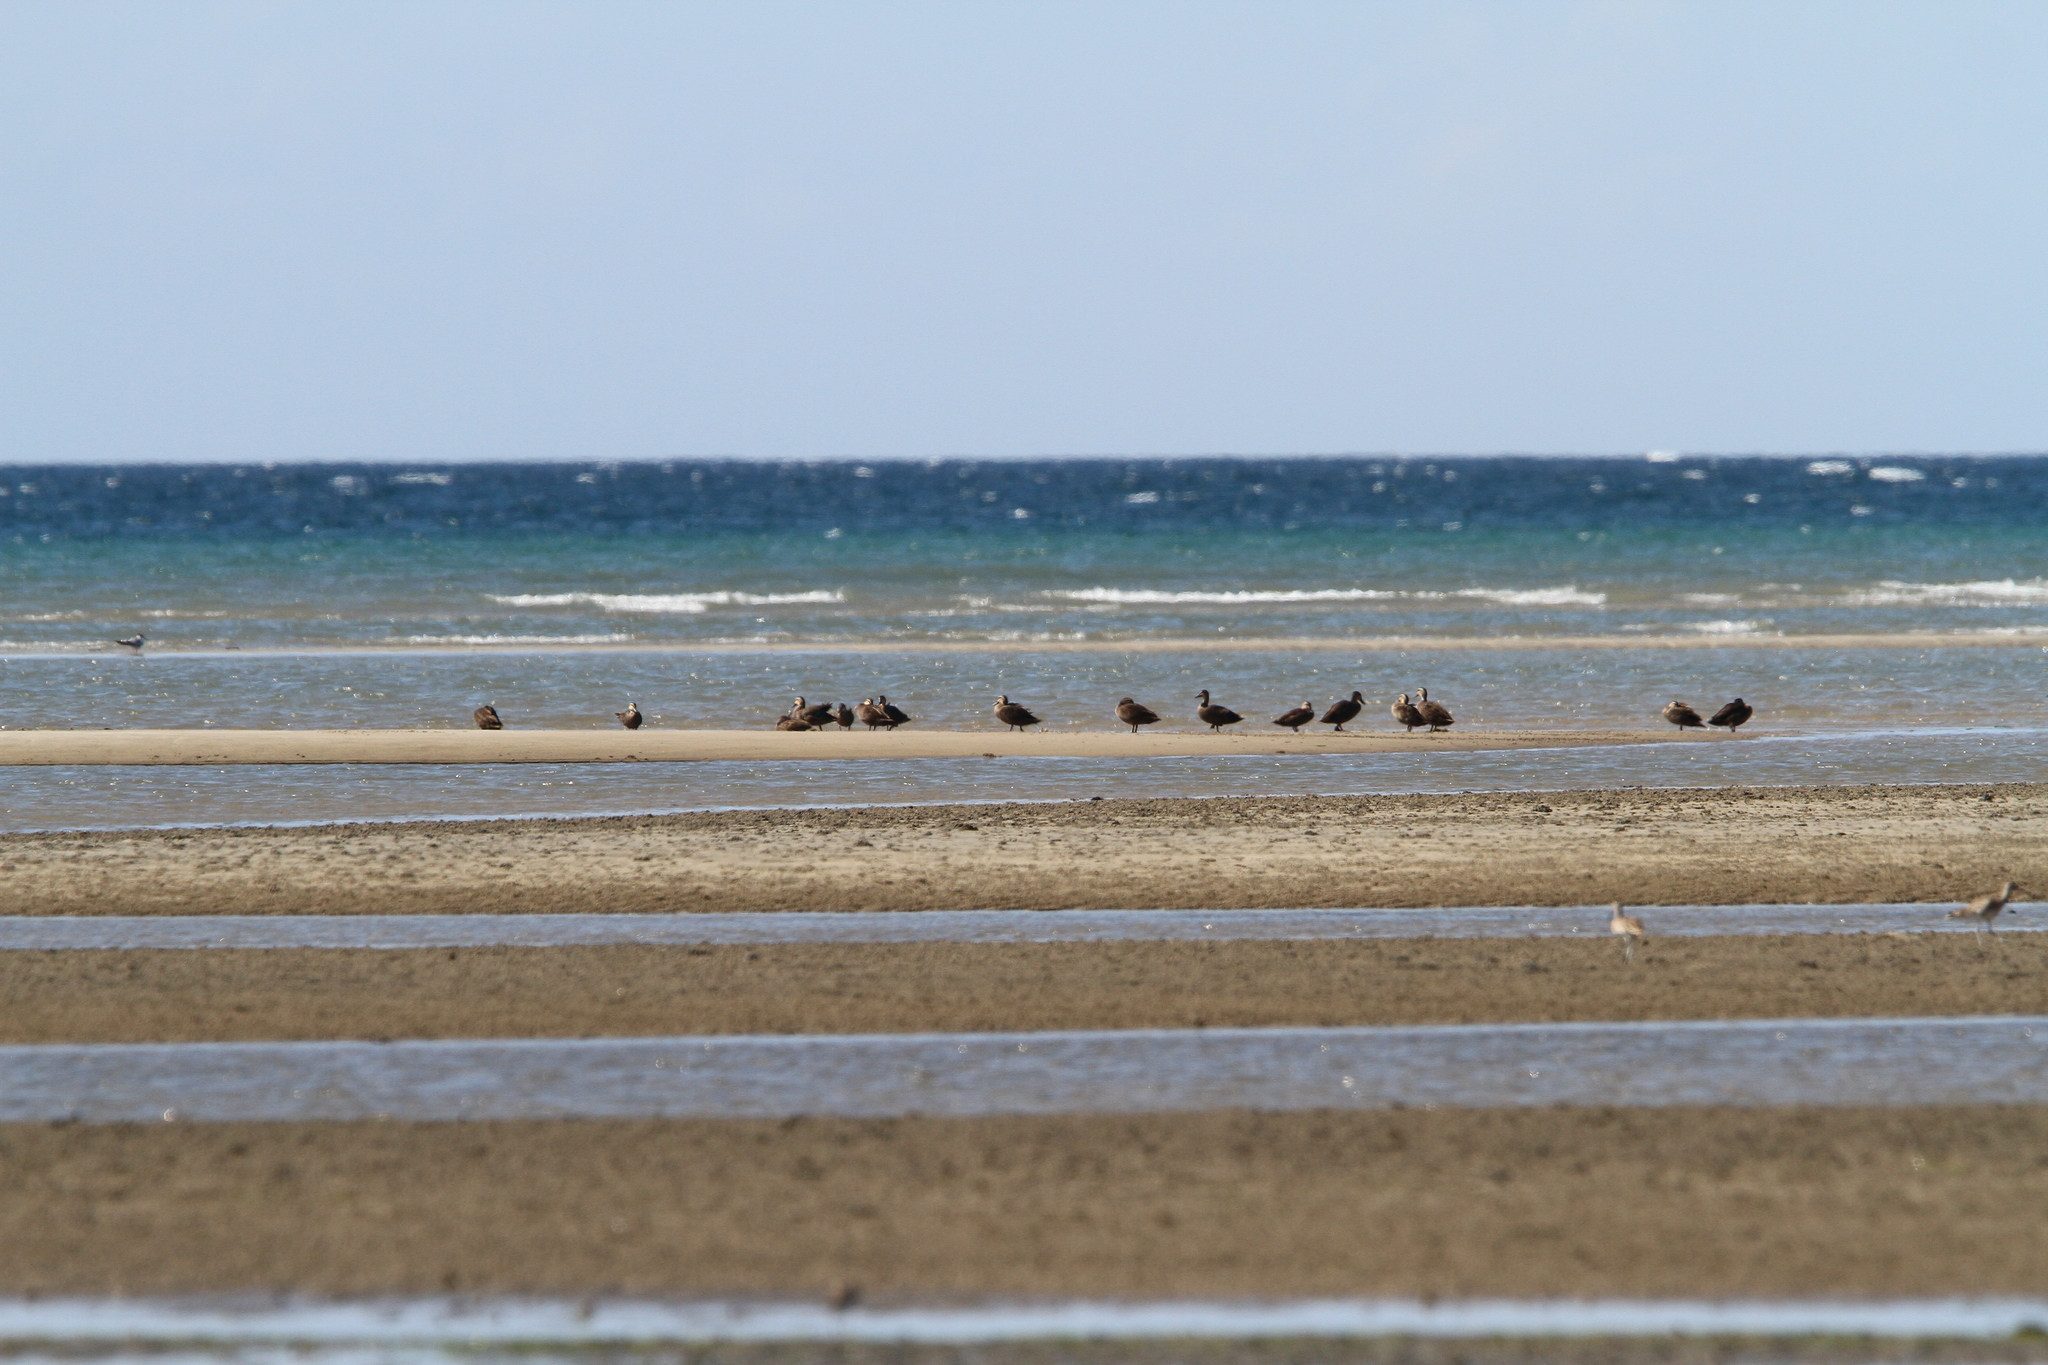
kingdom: Animalia
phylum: Chordata
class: Aves
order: Anseriformes
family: Anatidae
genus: Anas
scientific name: Anas superciliosa
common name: Pacific black duck
